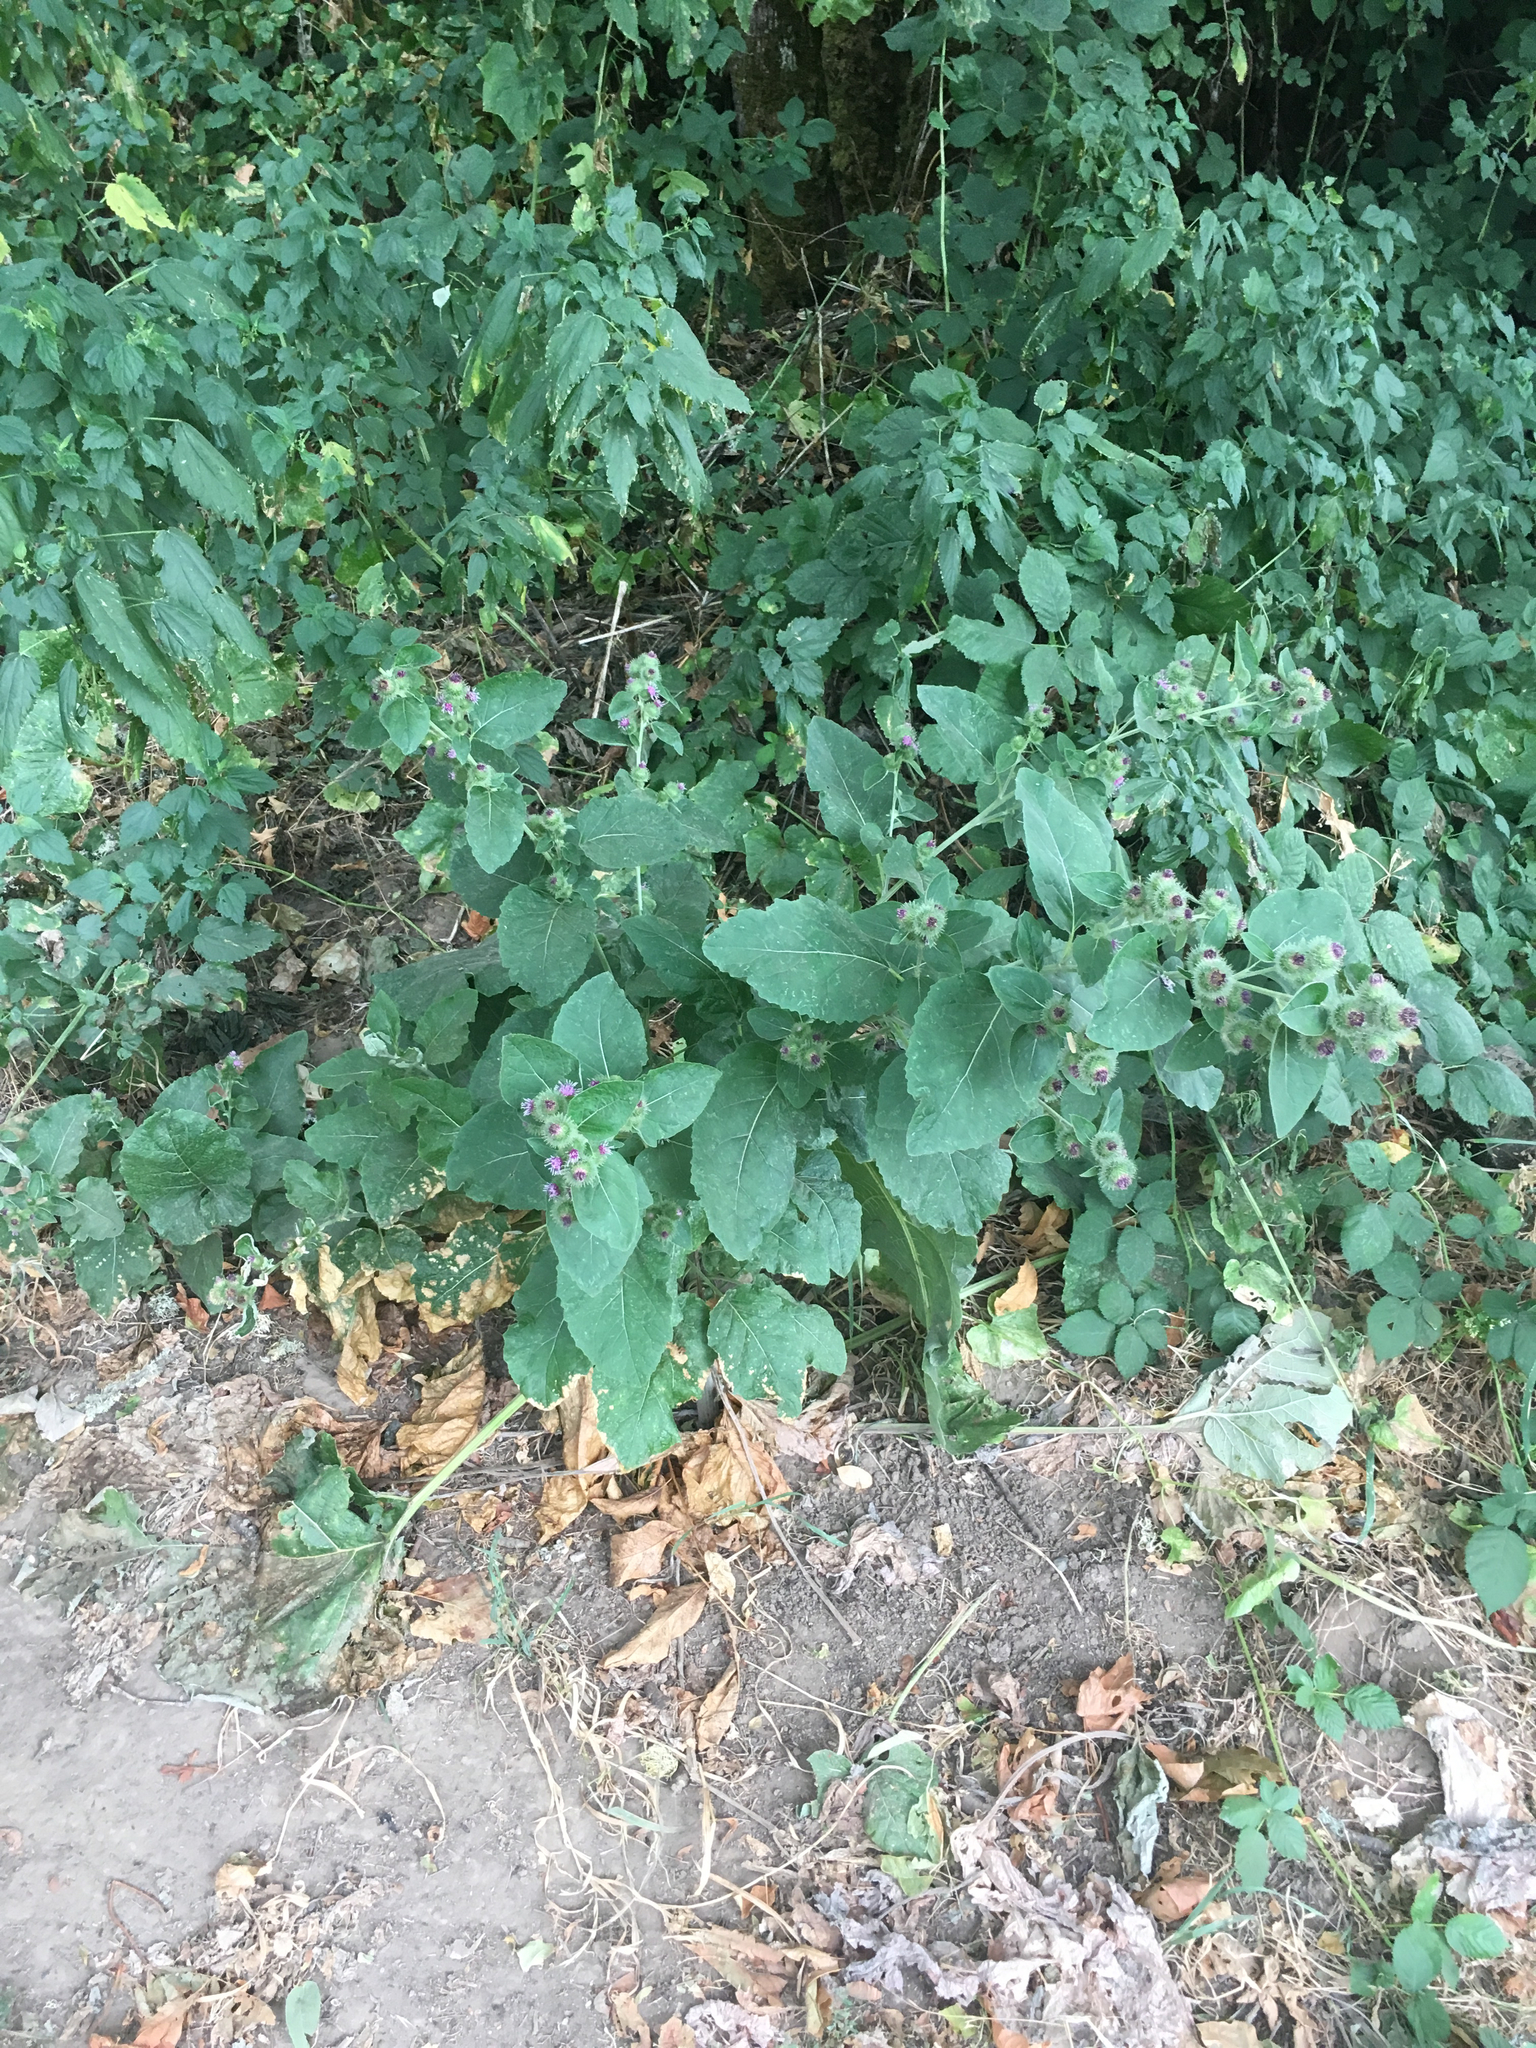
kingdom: Plantae
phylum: Tracheophyta
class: Magnoliopsida
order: Asterales
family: Asteraceae
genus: Arctium
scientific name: Arctium minus
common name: Lesser burdock
